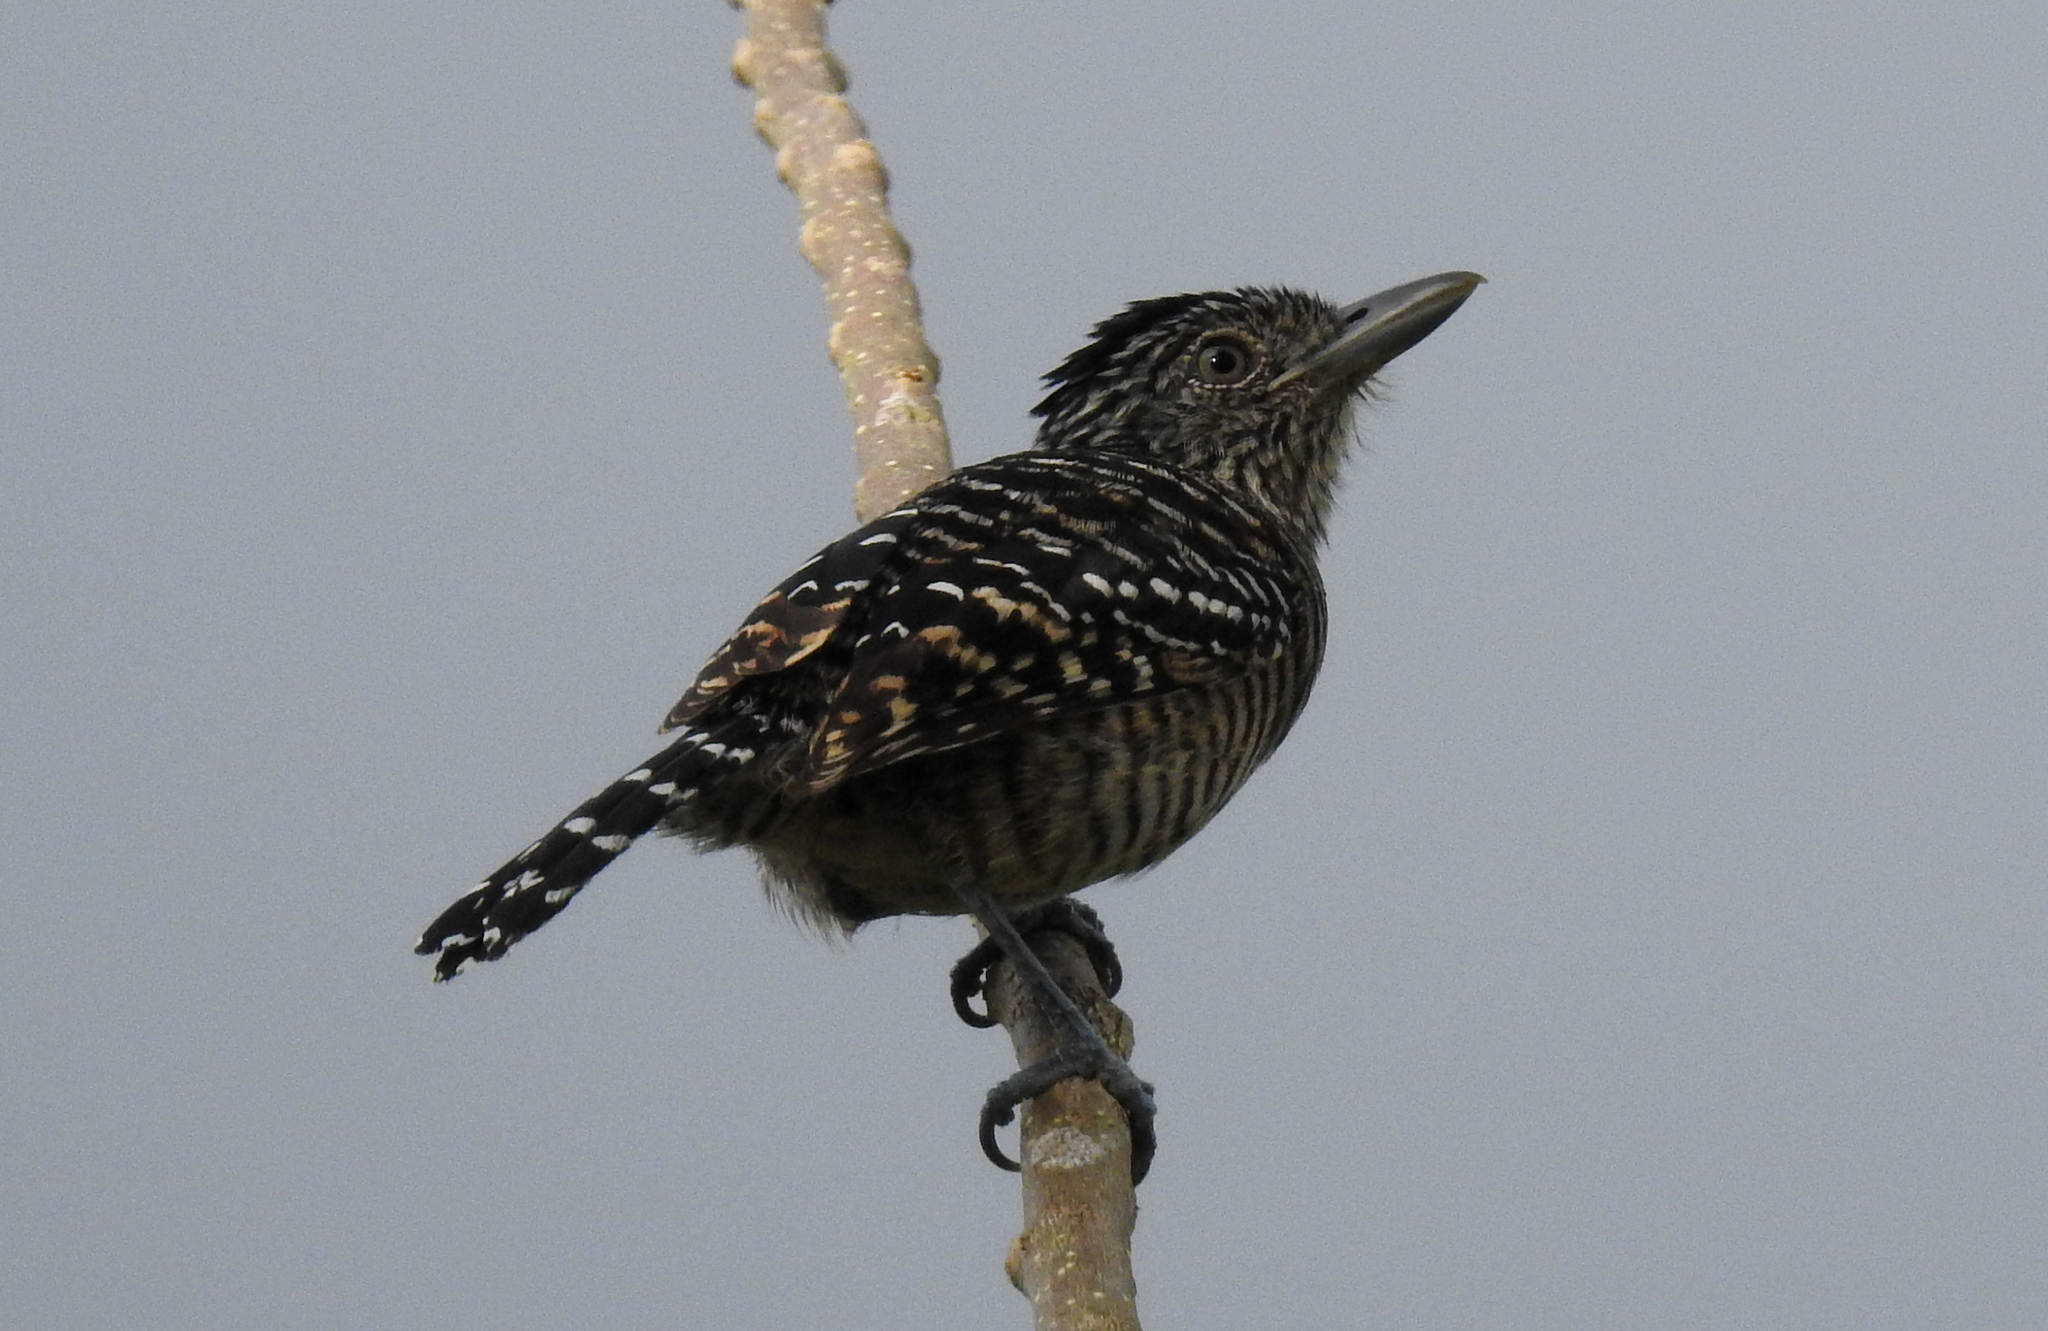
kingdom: Animalia
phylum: Chordata
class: Aves
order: Passeriformes
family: Thamnophilidae
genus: Thamnophilus
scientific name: Thamnophilus doliatus
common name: Barred antshrike
